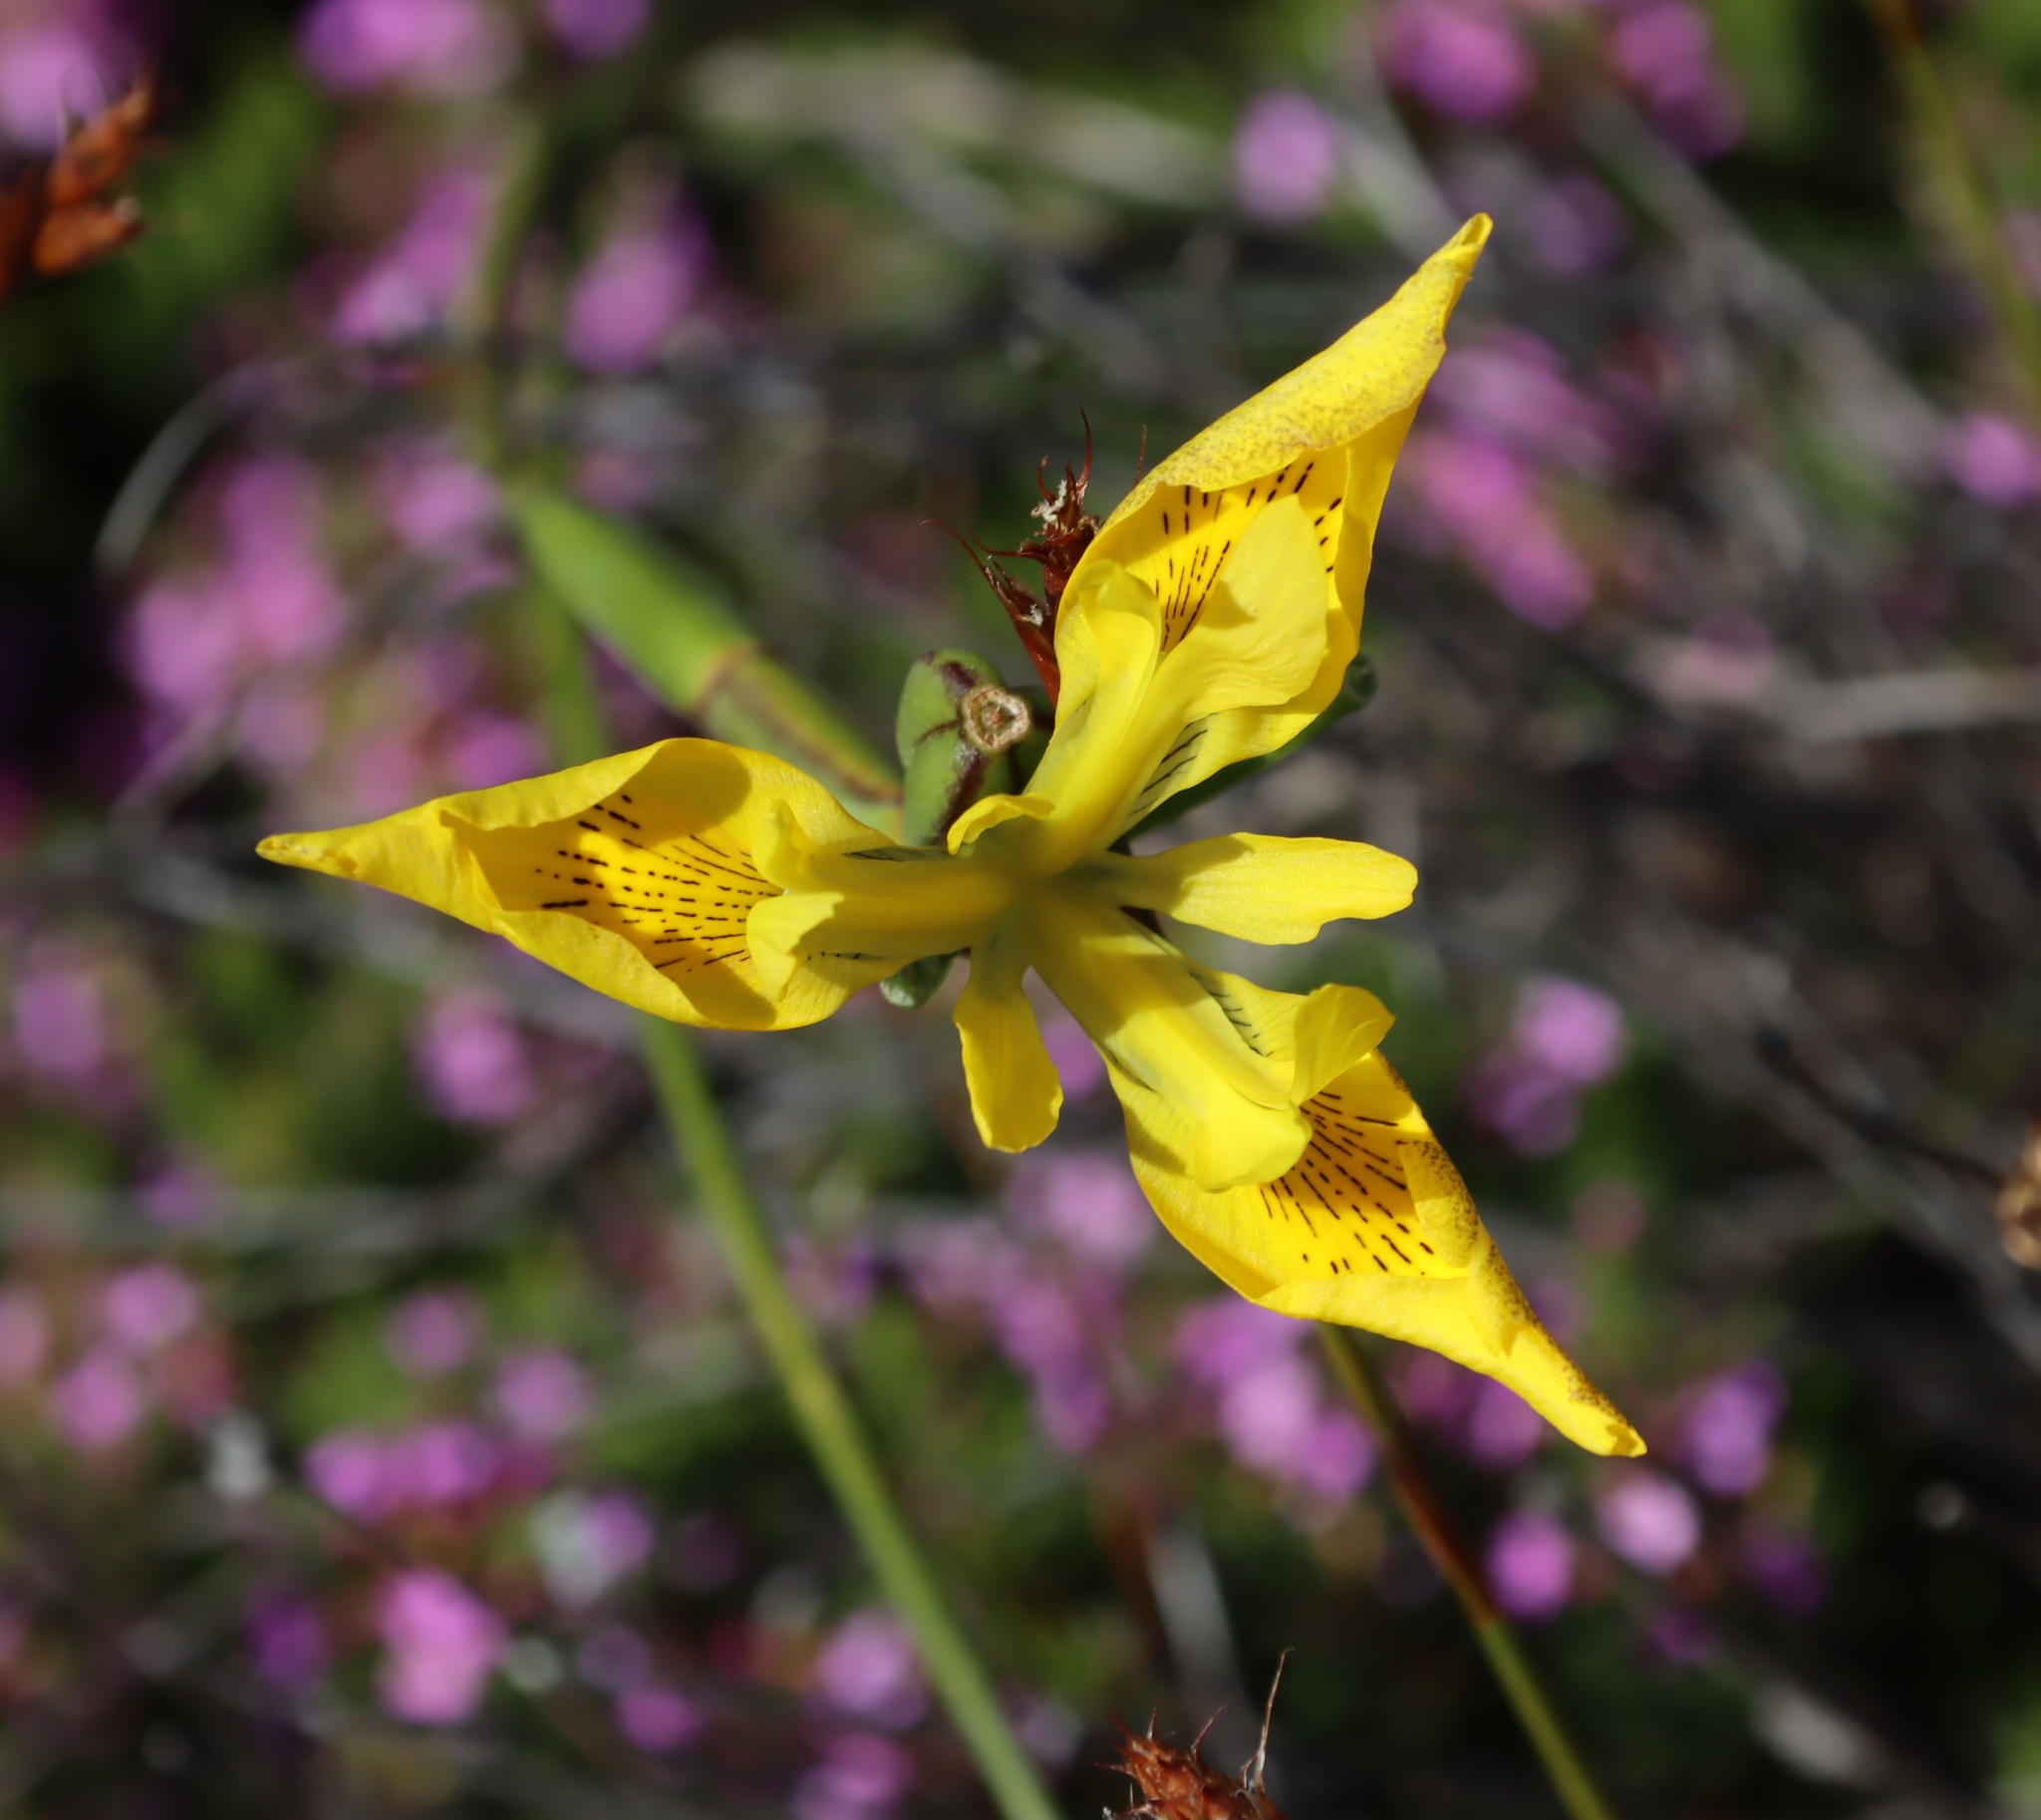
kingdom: Plantae
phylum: Tracheophyta
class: Liliopsida
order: Asparagales
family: Iridaceae
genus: Moraea
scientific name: Moraea neglecta
